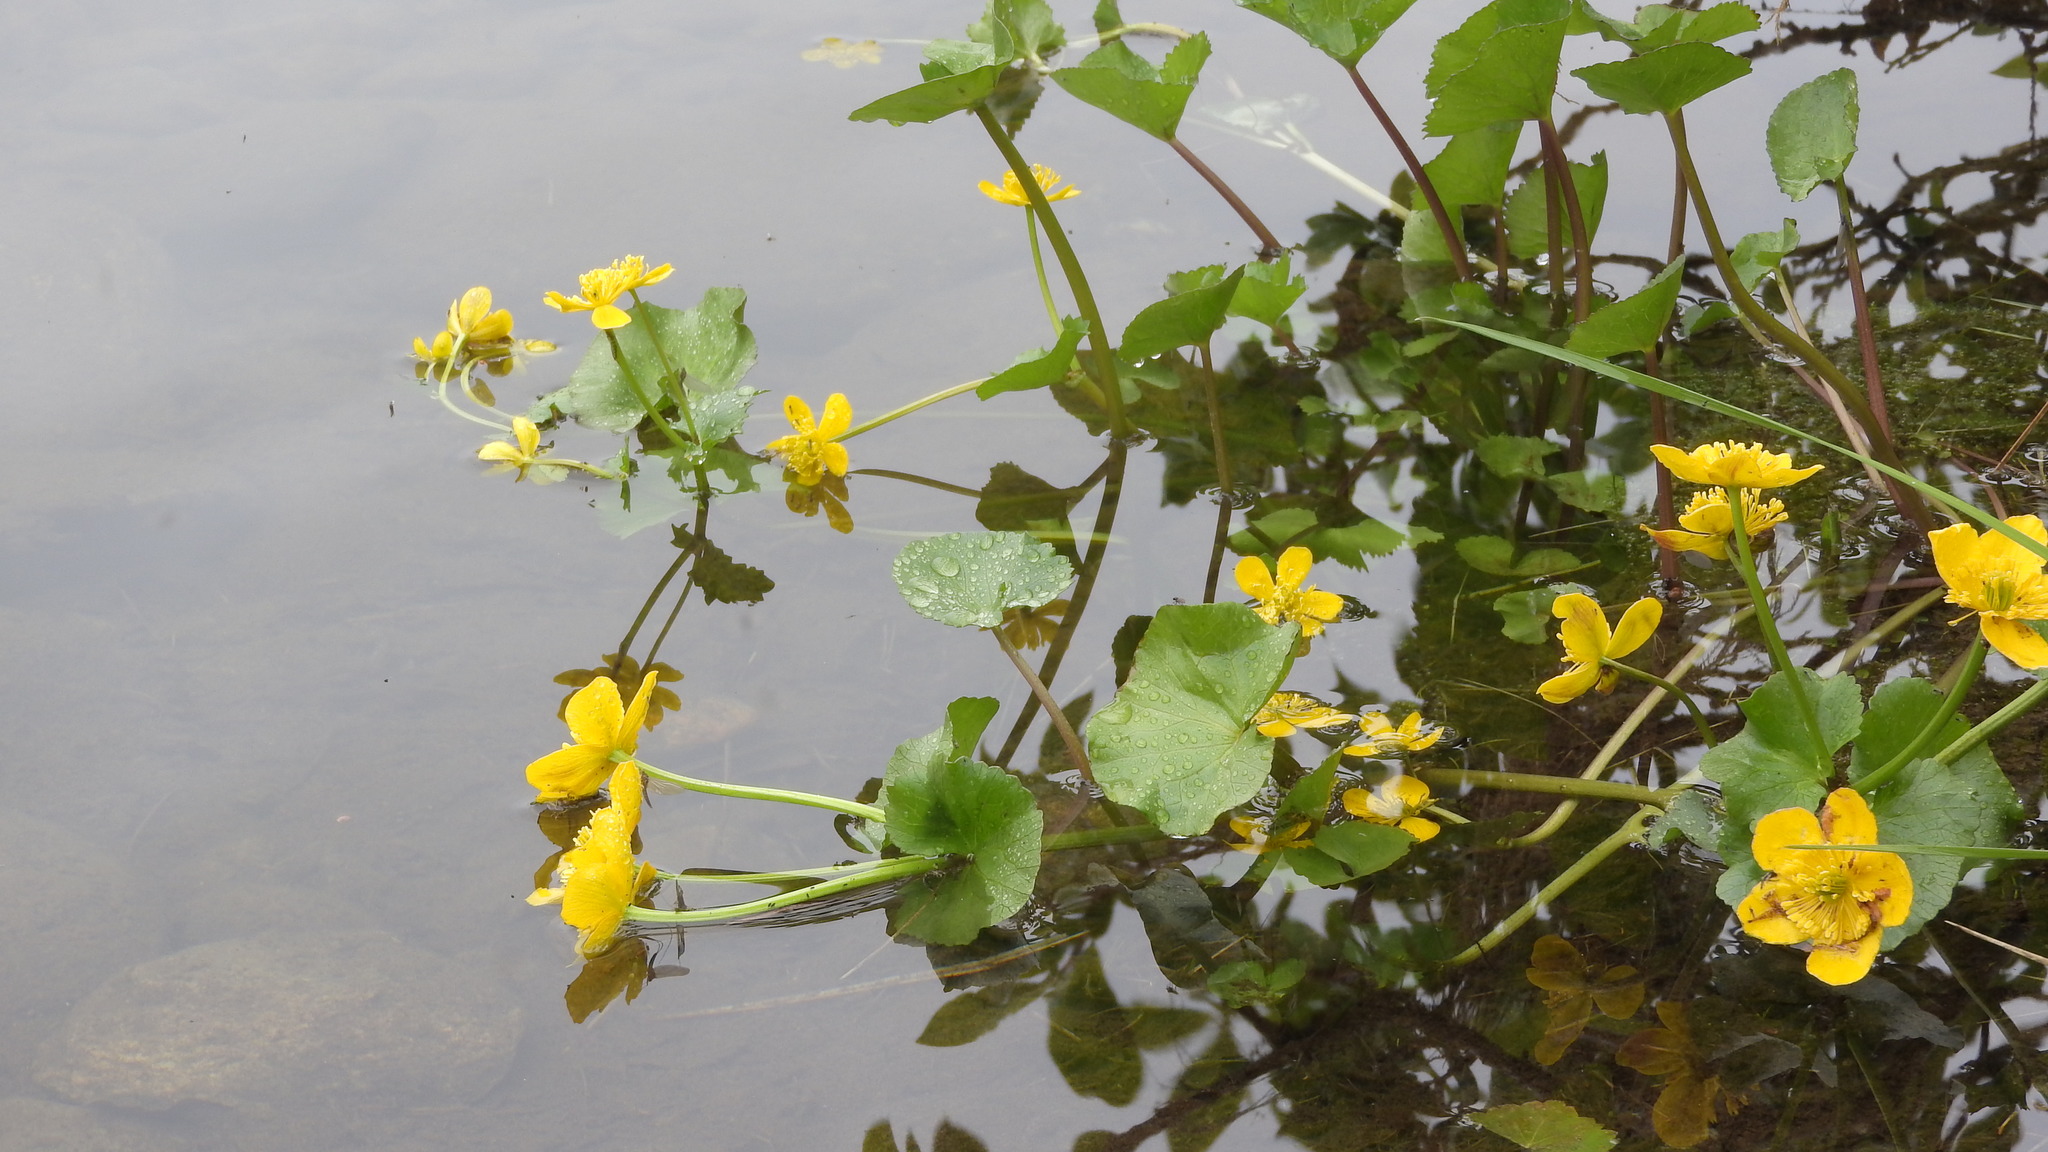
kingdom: Plantae
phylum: Tracheophyta
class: Magnoliopsida
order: Ranunculales
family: Ranunculaceae
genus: Caltha
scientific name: Caltha palustris
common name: Marsh marigold
